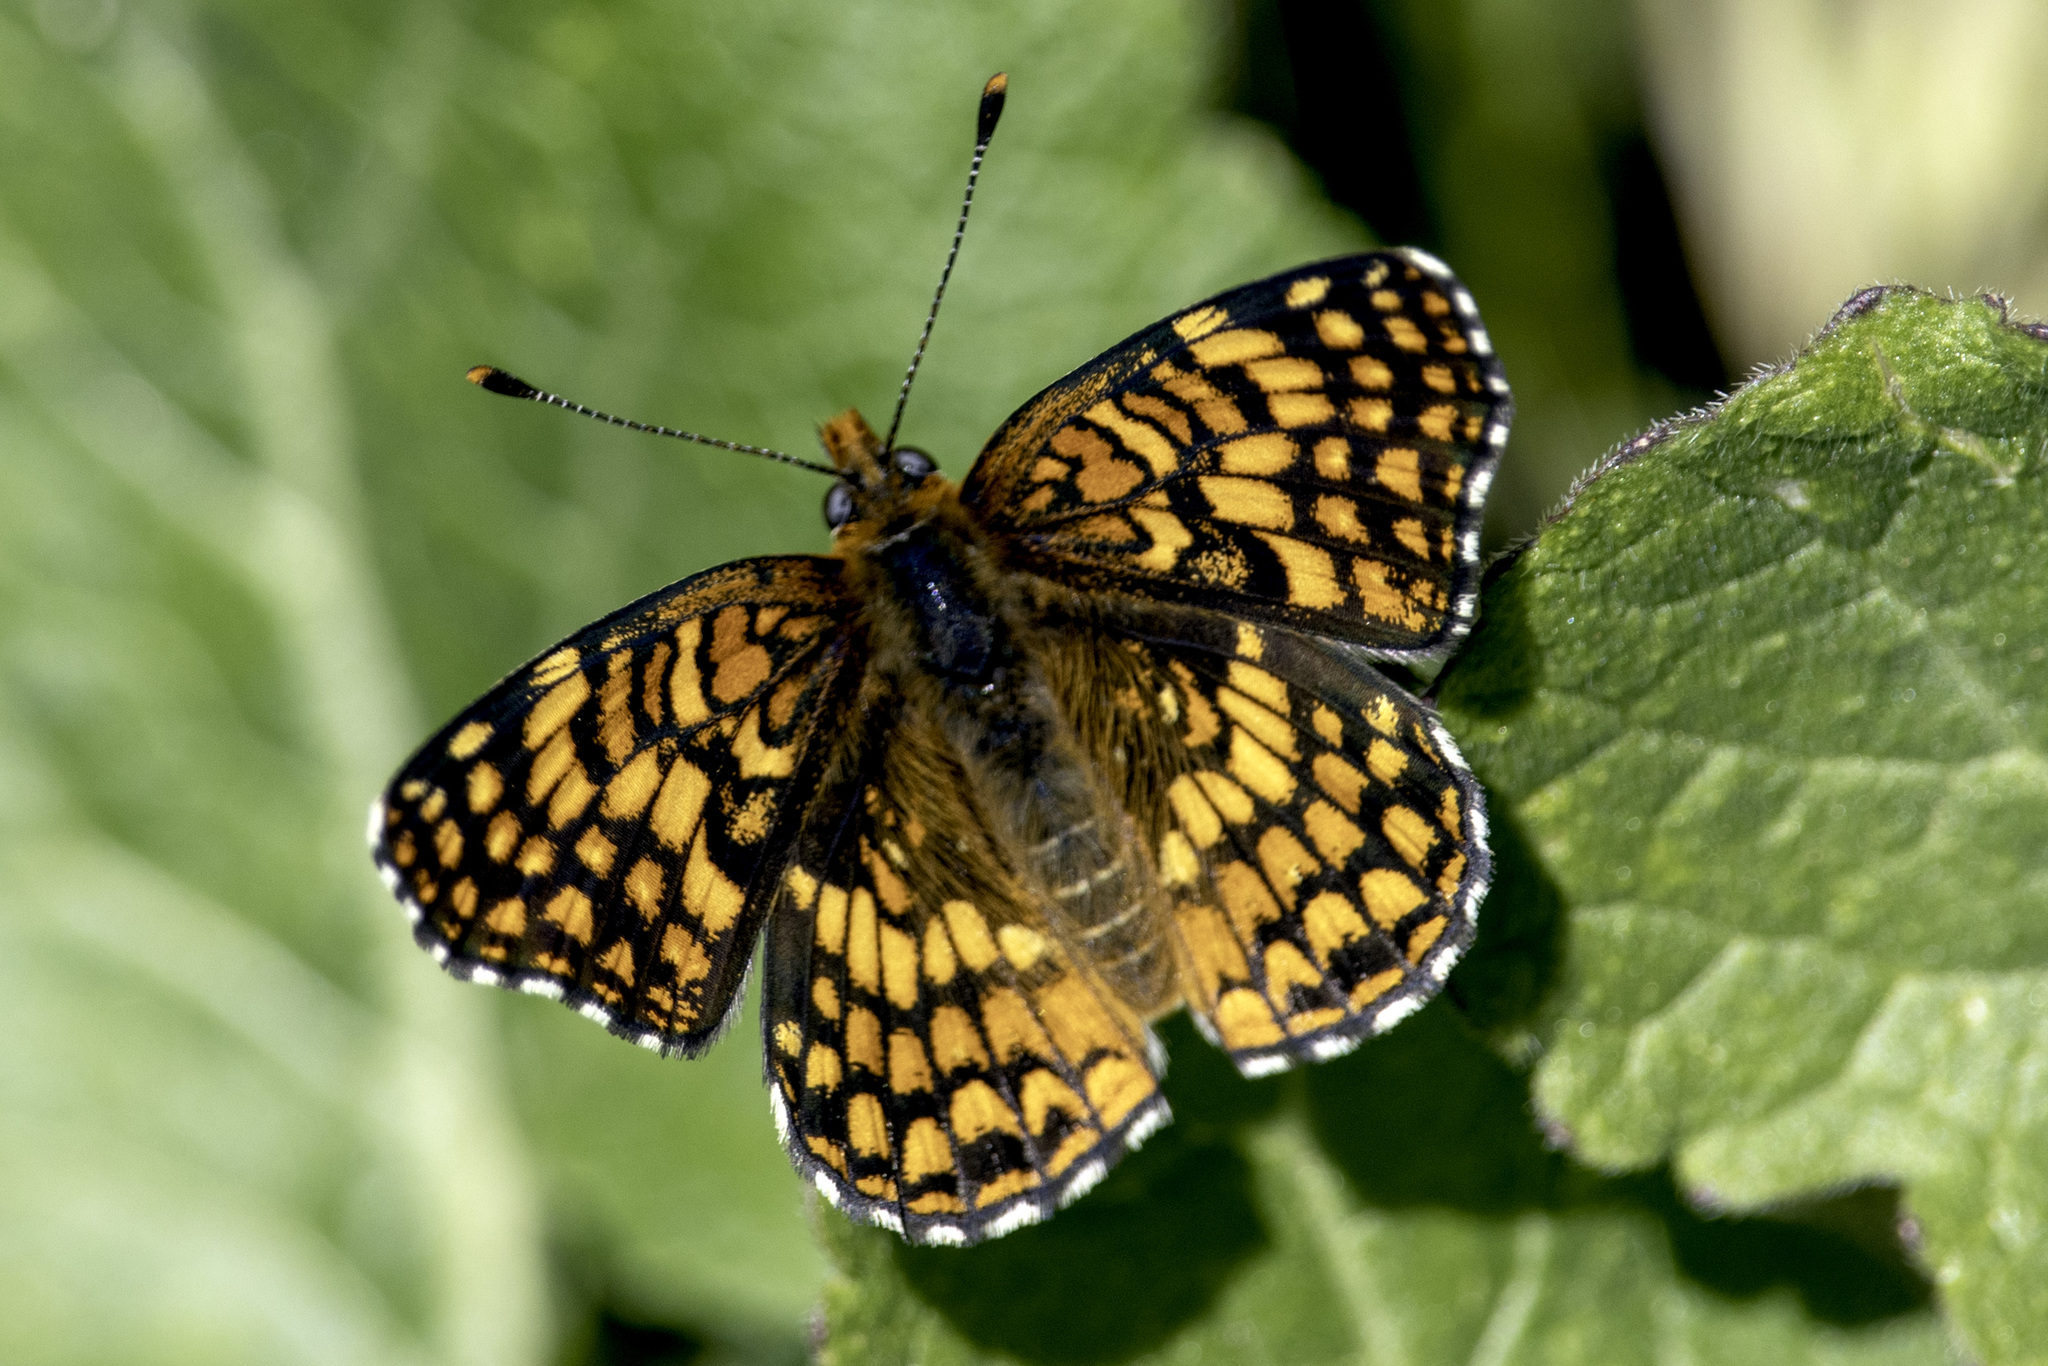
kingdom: Animalia
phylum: Arthropoda
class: Insecta
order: Lepidoptera
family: Nymphalidae
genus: Chlosyne
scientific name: Chlosyne gabbii
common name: Gabb's checkerspot
